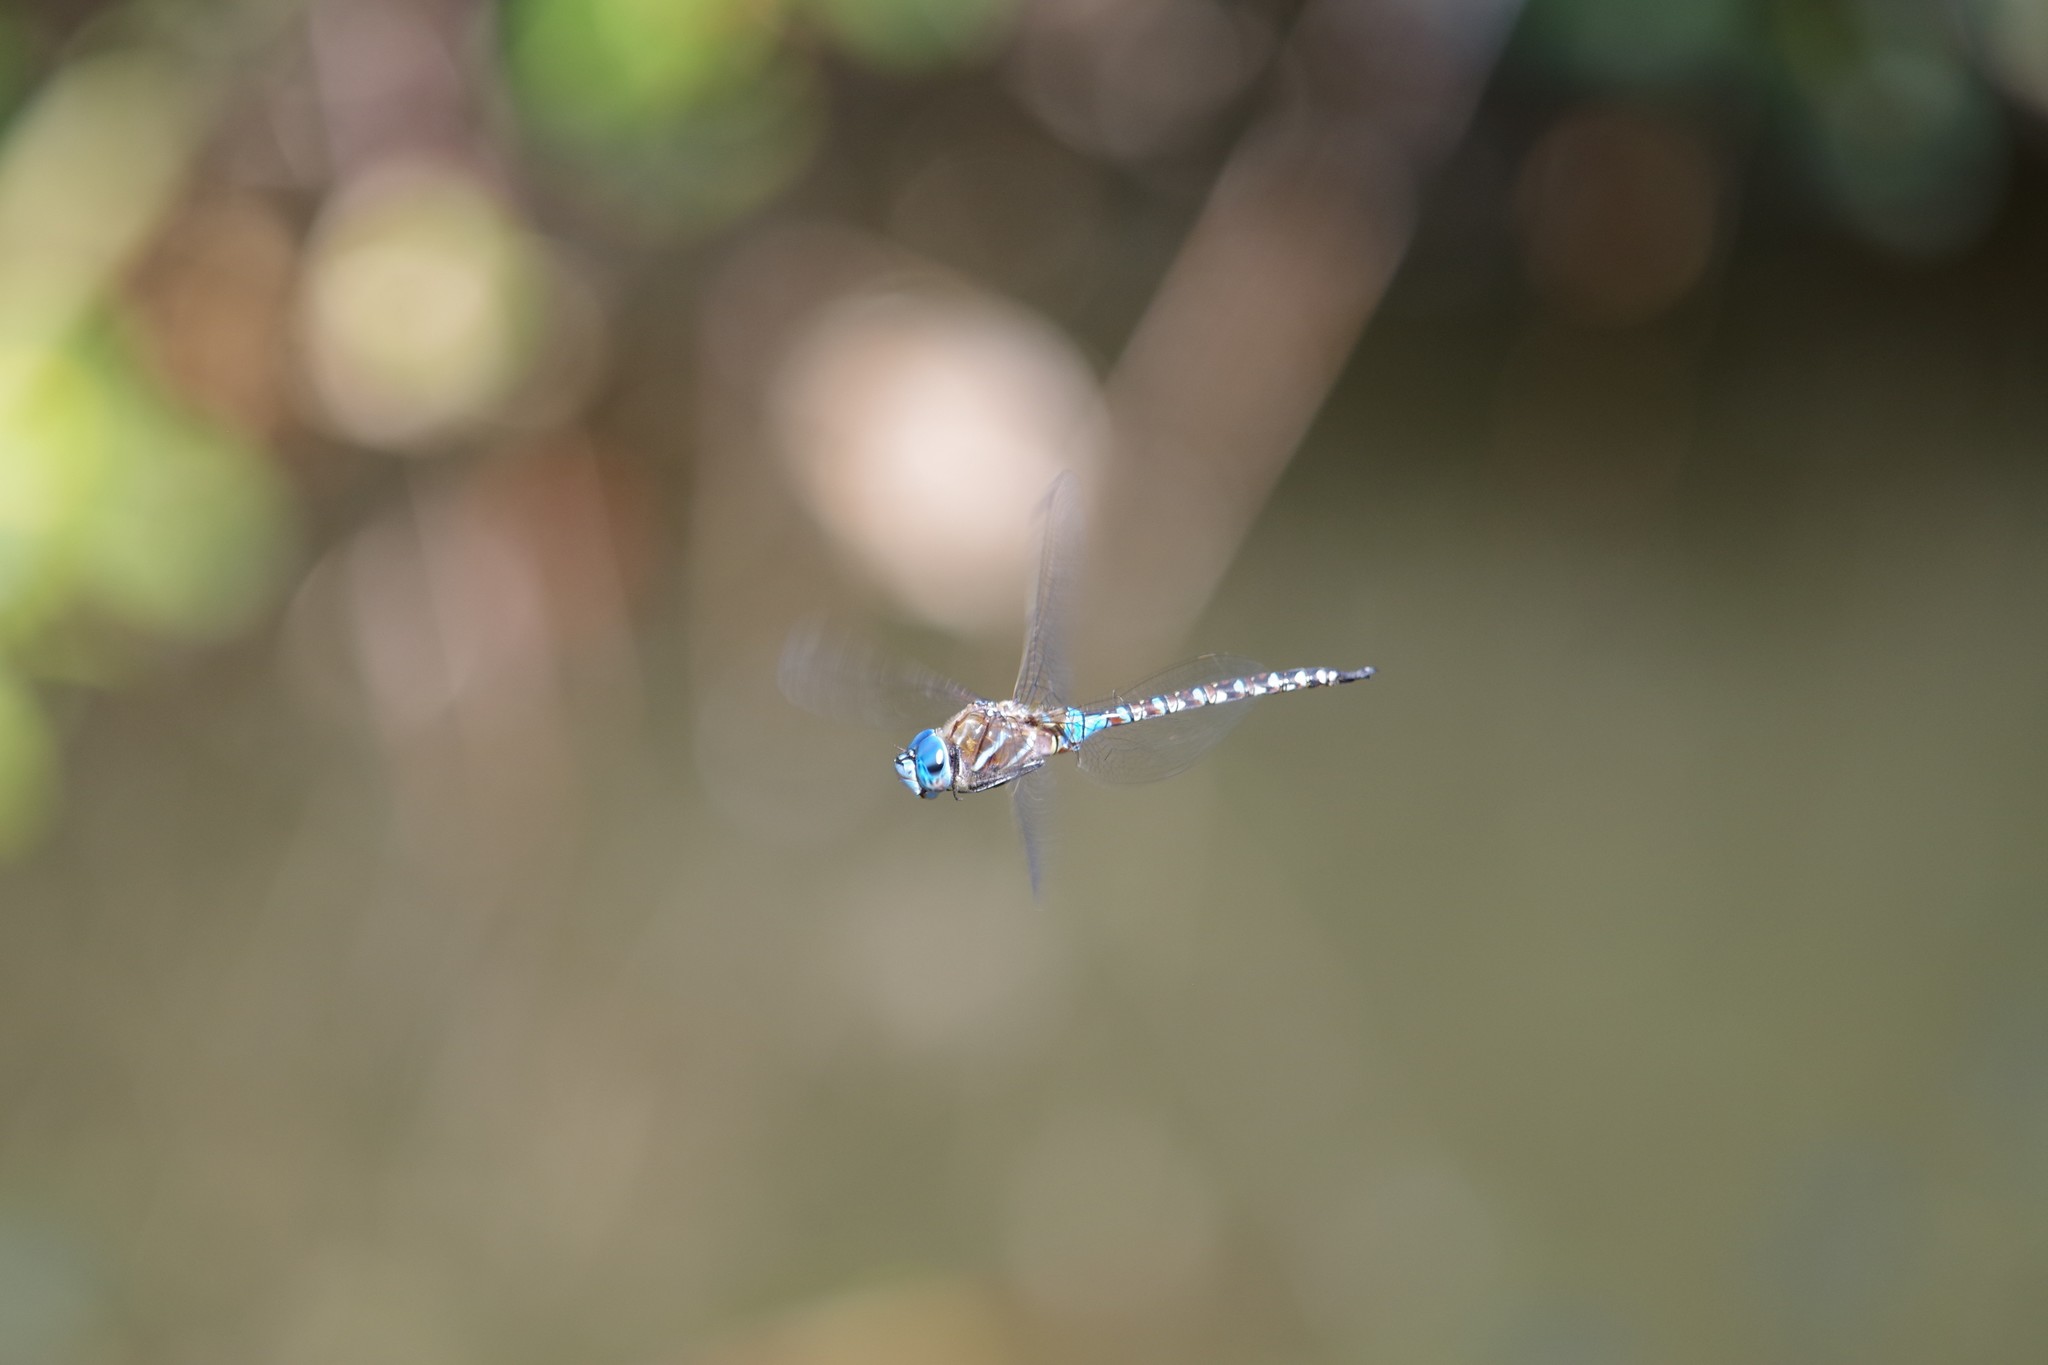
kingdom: Animalia
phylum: Arthropoda
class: Insecta
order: Odonata
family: Aeshnidae
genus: Rhionaeschna
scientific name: Rhionaeschna multicolor
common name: Blue-eyed darner
